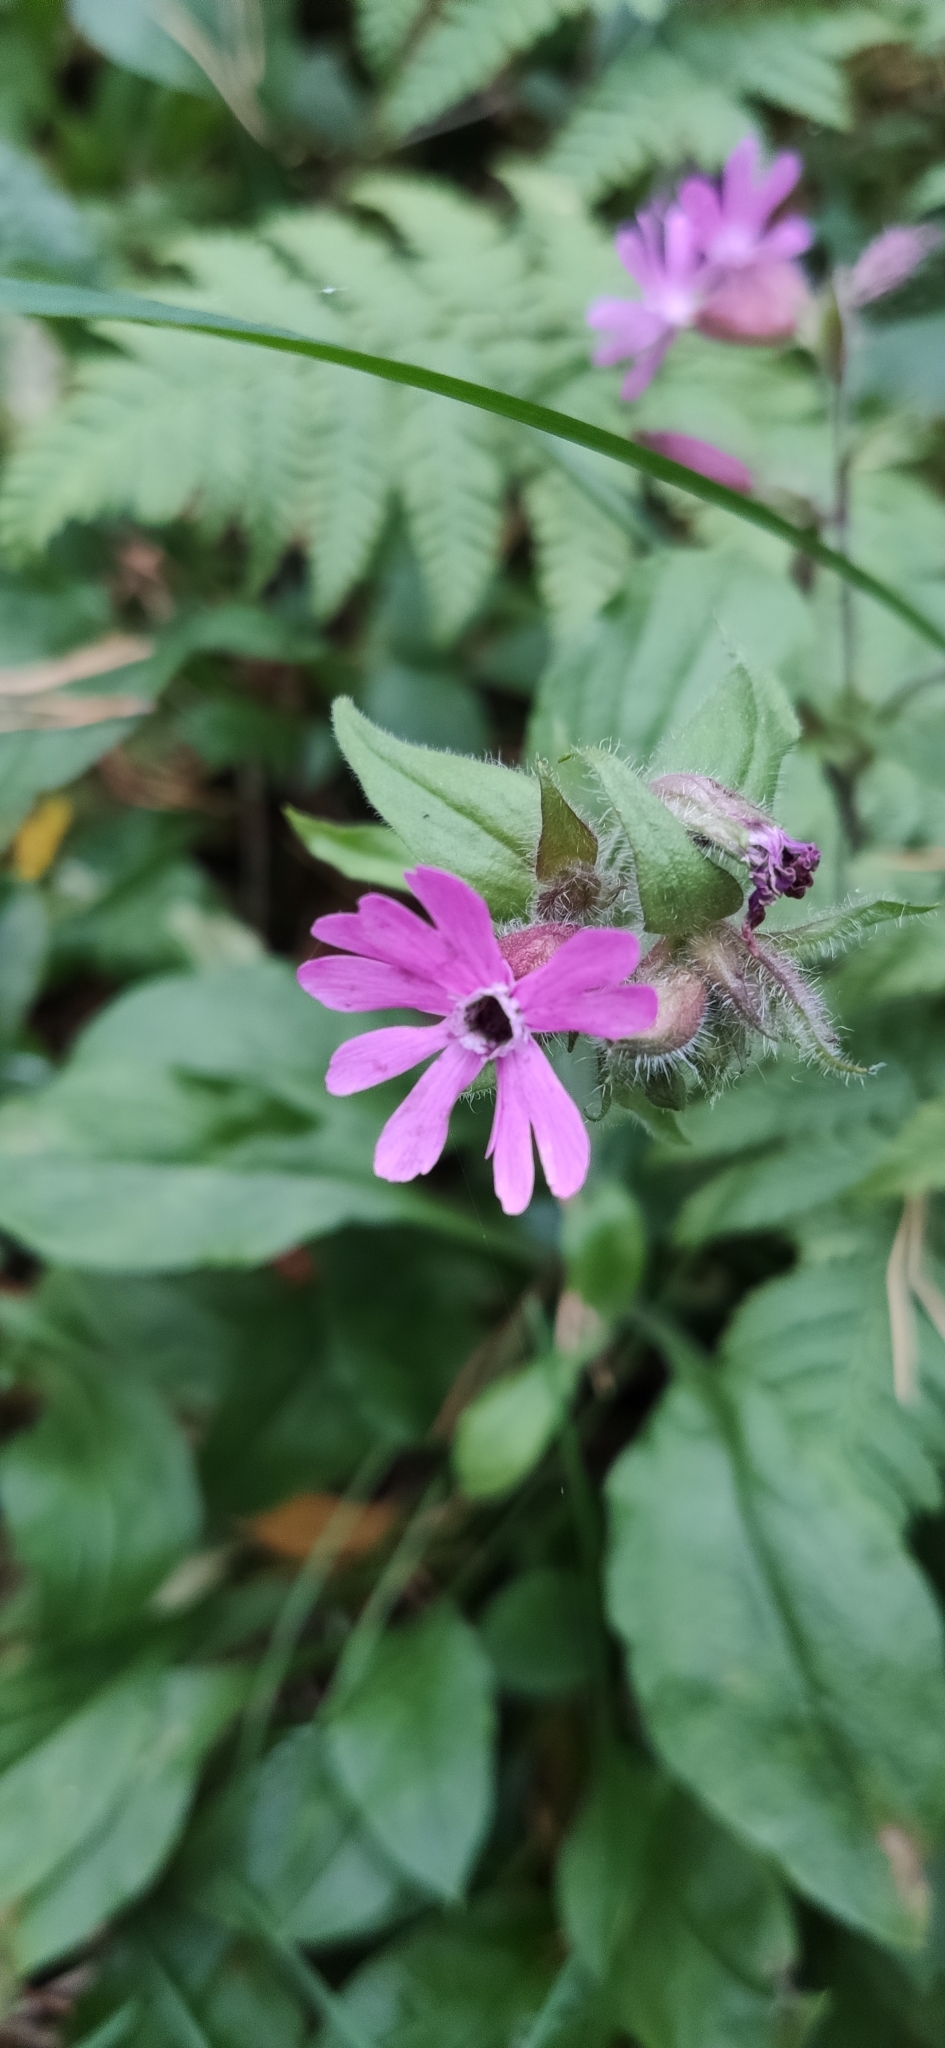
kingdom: Plantae
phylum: Tracheophyta
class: Magnoliopsida
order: Caryophyllales
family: Caryophyllaceae
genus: Silene
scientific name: Silene dioica
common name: Red campion
